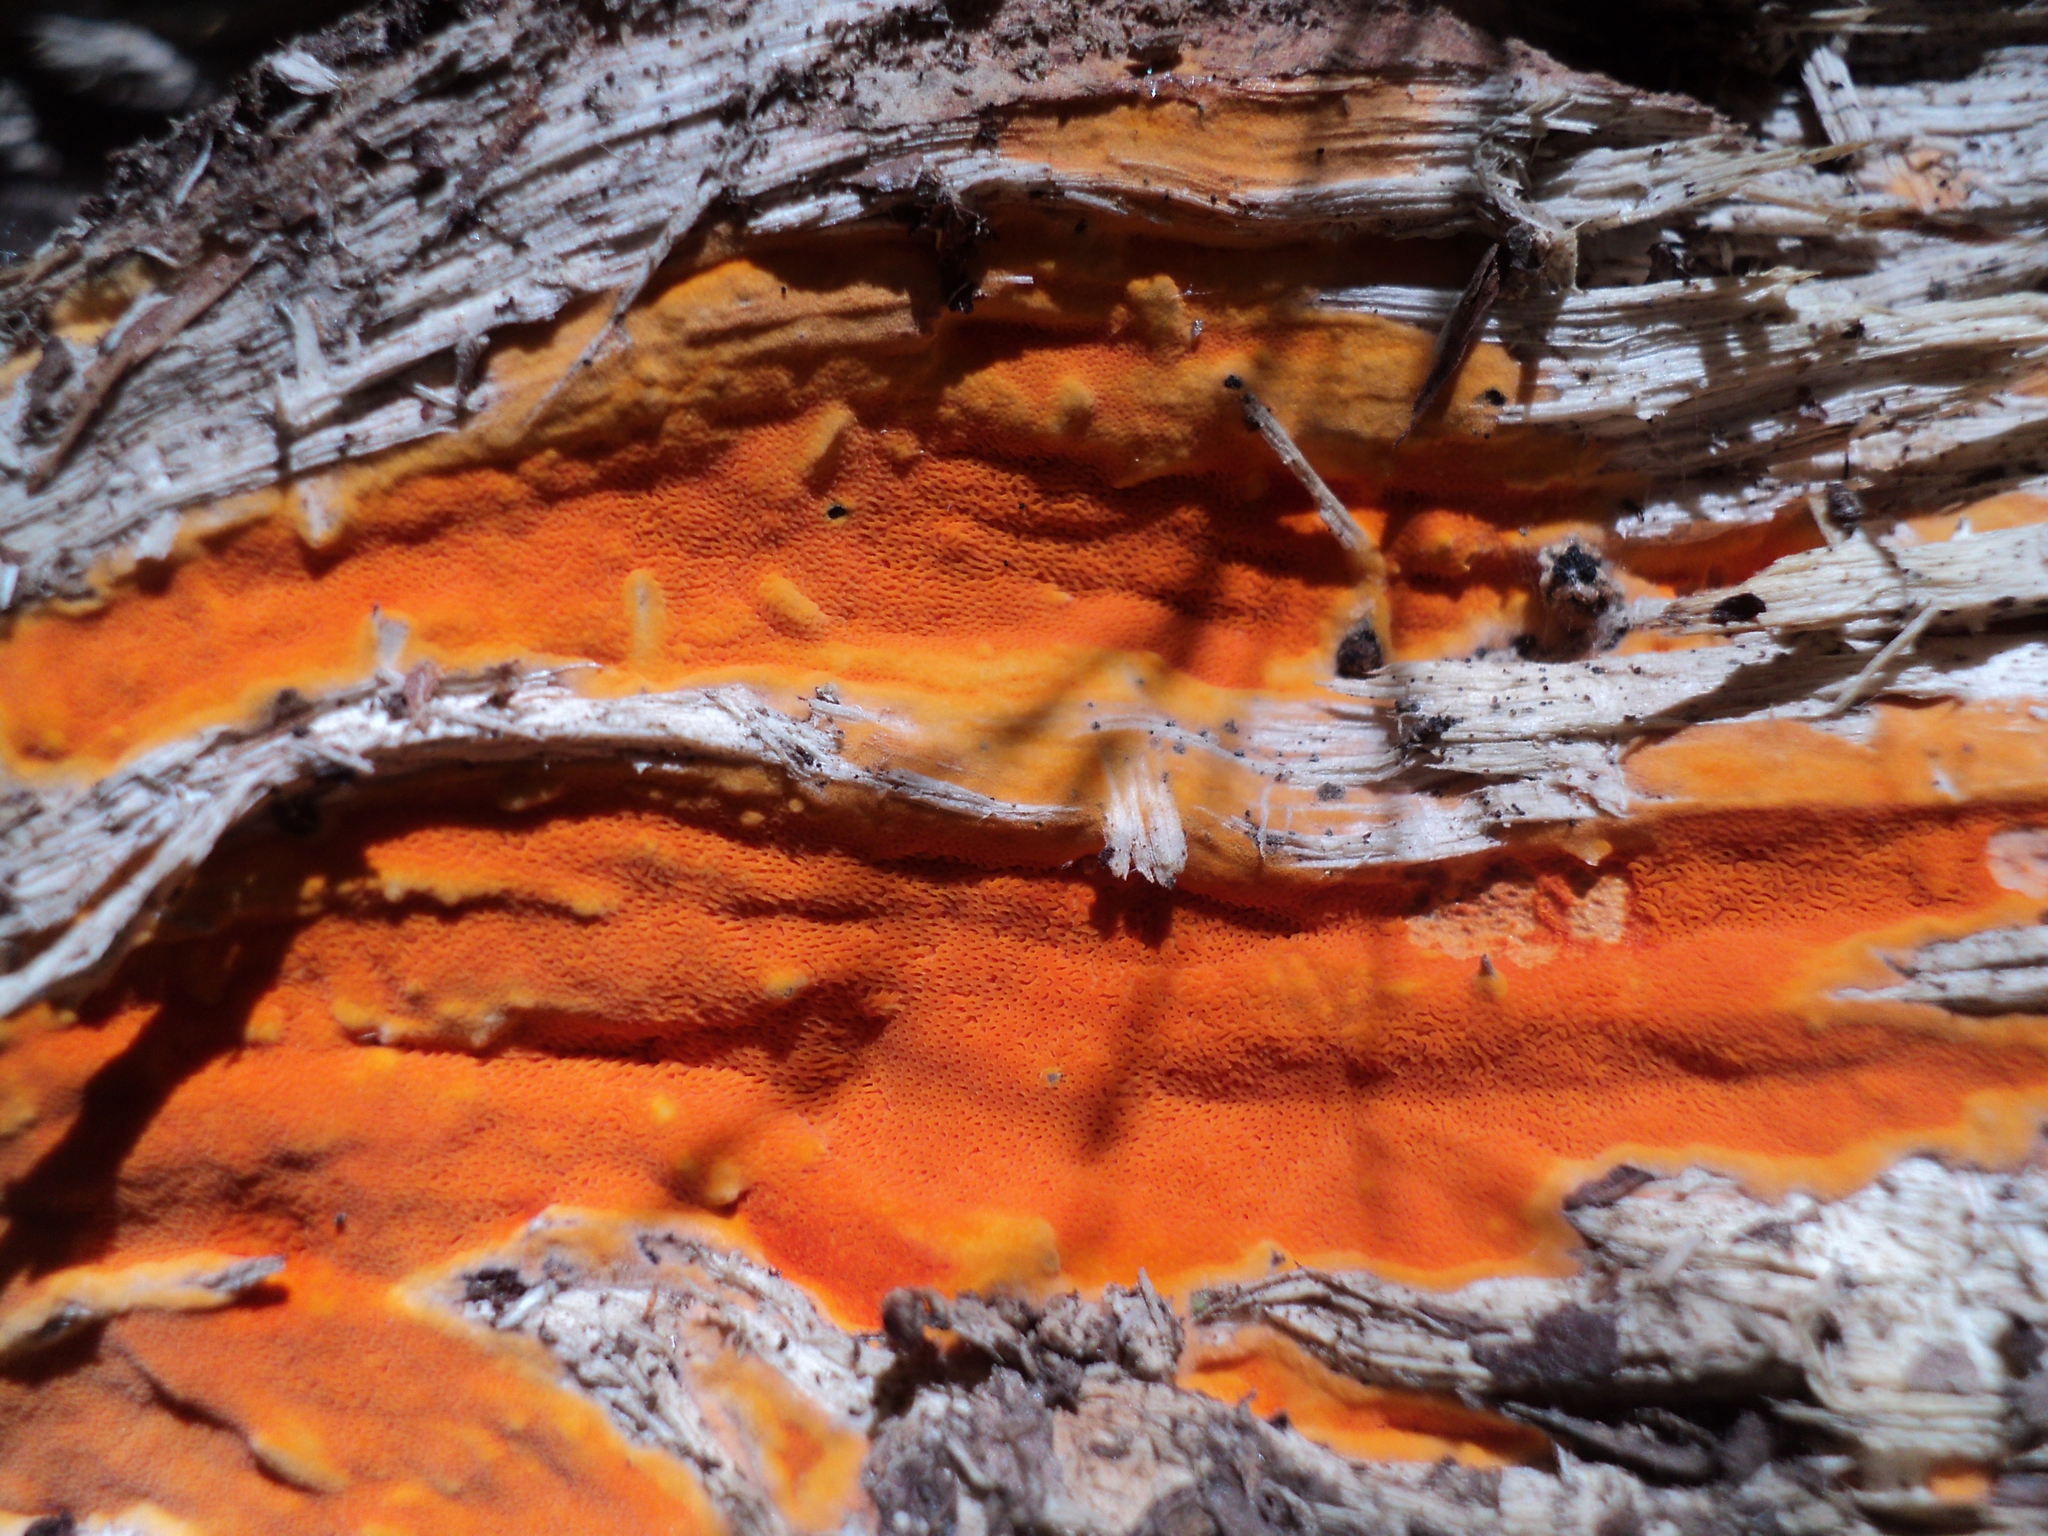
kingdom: Fungi
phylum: Basidiomycota
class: Agaricomycetes
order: Polyporales
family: Irpicaceae
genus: Ceriporia
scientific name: Ceriporia spissa
